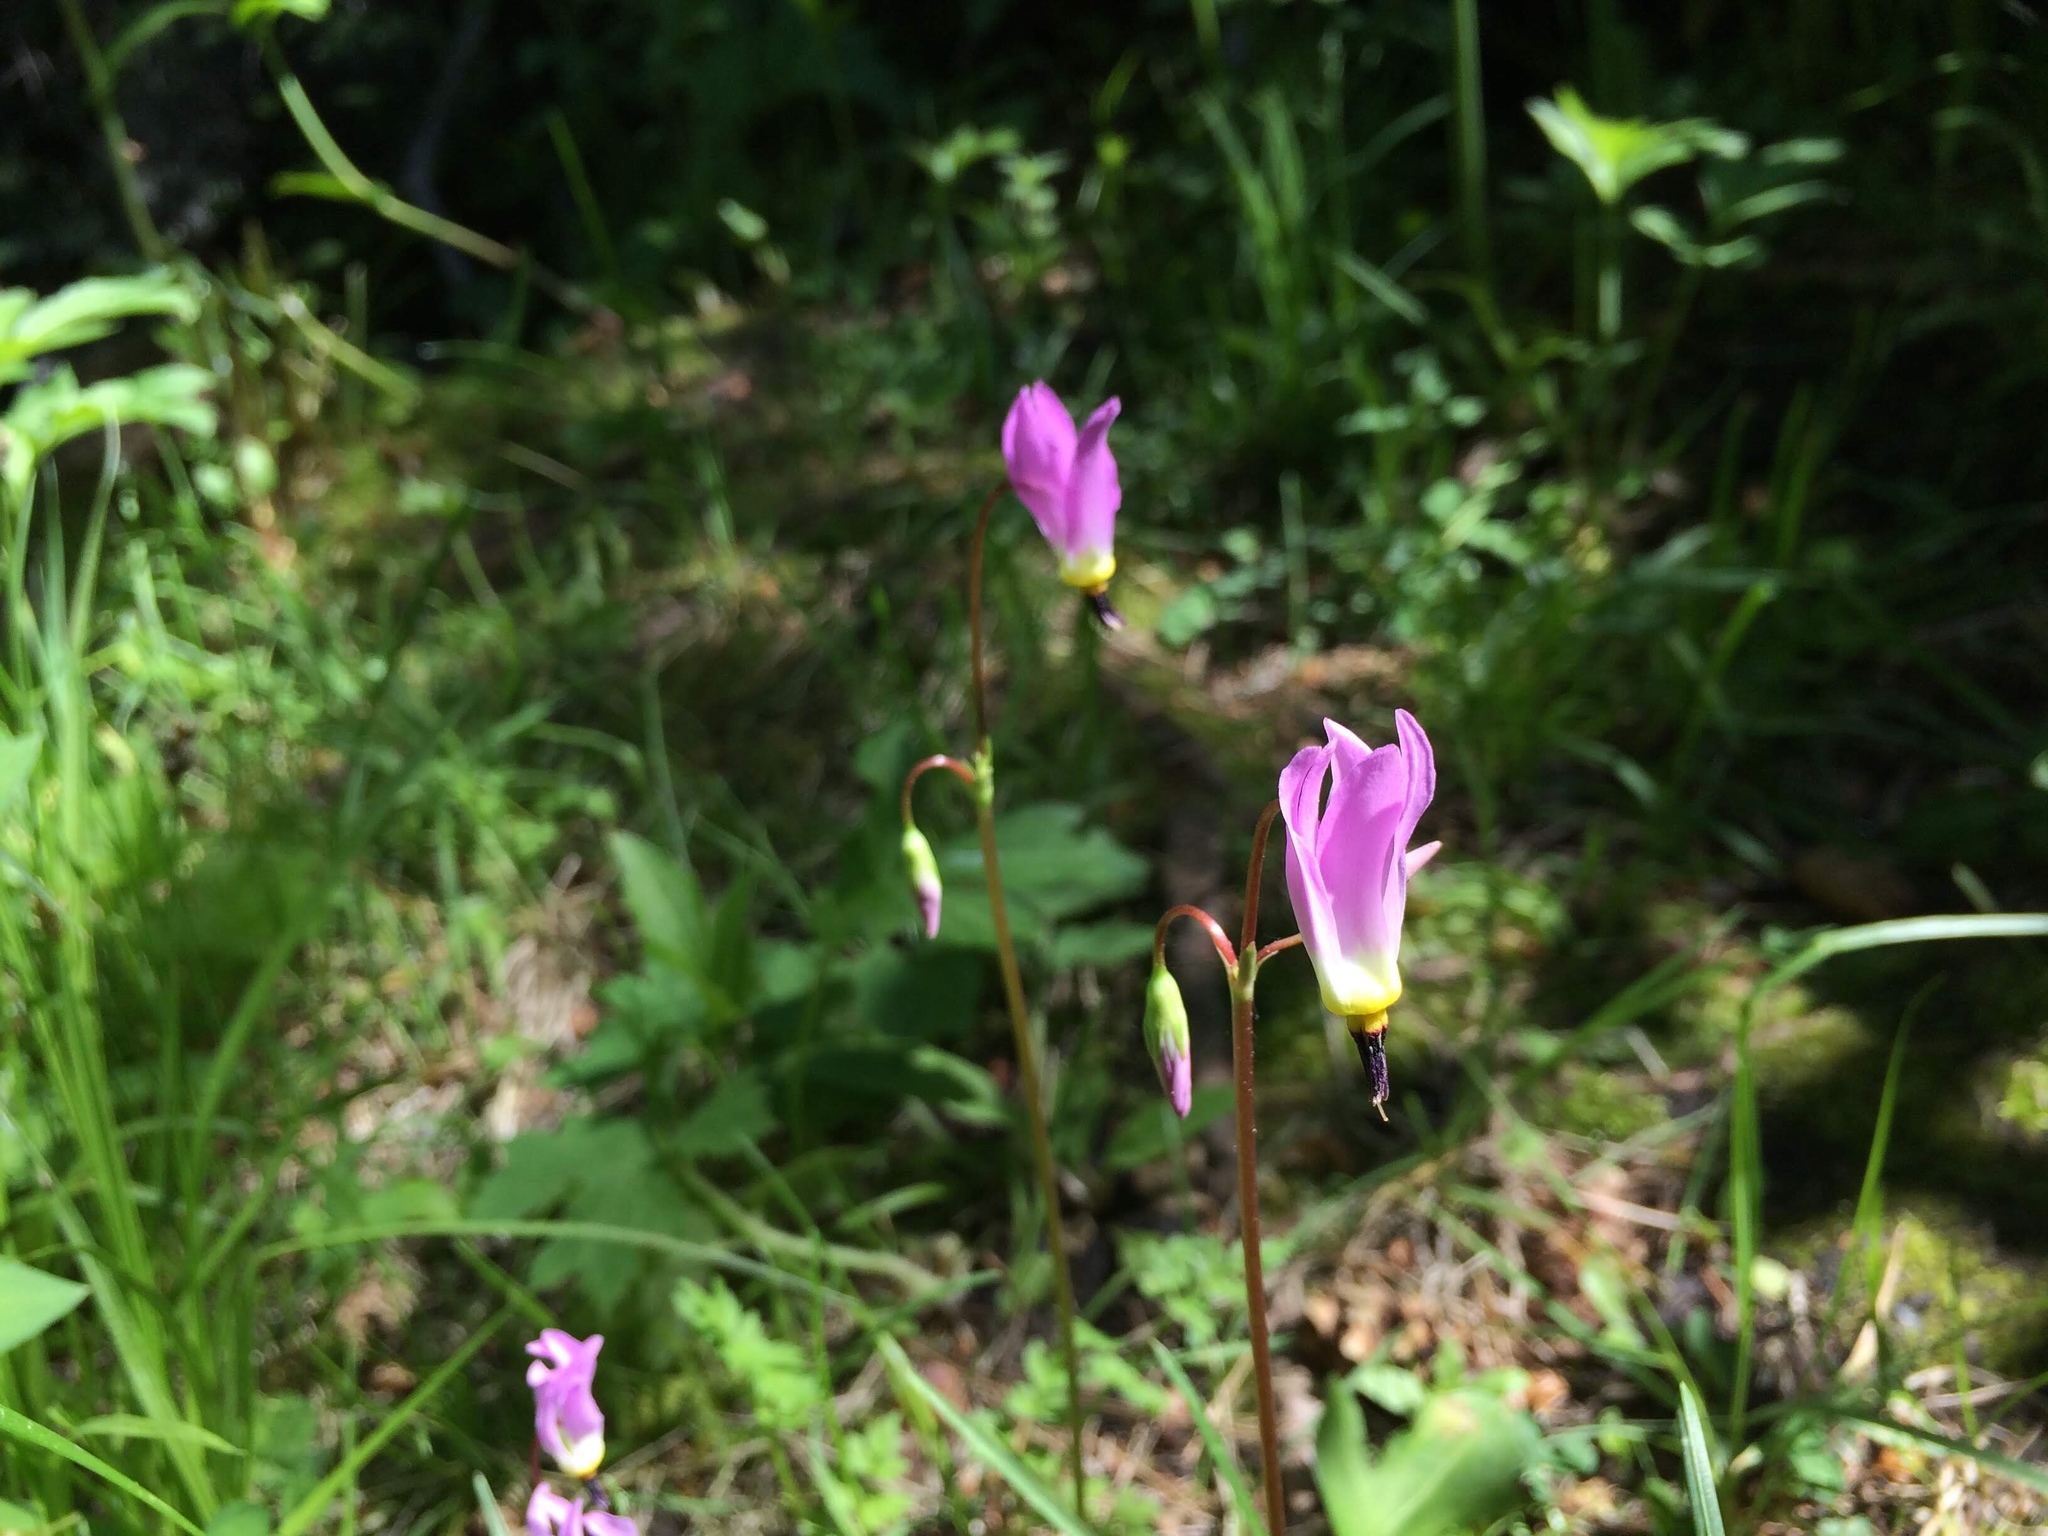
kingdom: Plantae
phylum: Tracheophyta
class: Magnoliopsida
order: Ericales
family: Primulaceae
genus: Dodecatheon
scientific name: Dodecatheon pulchellum
